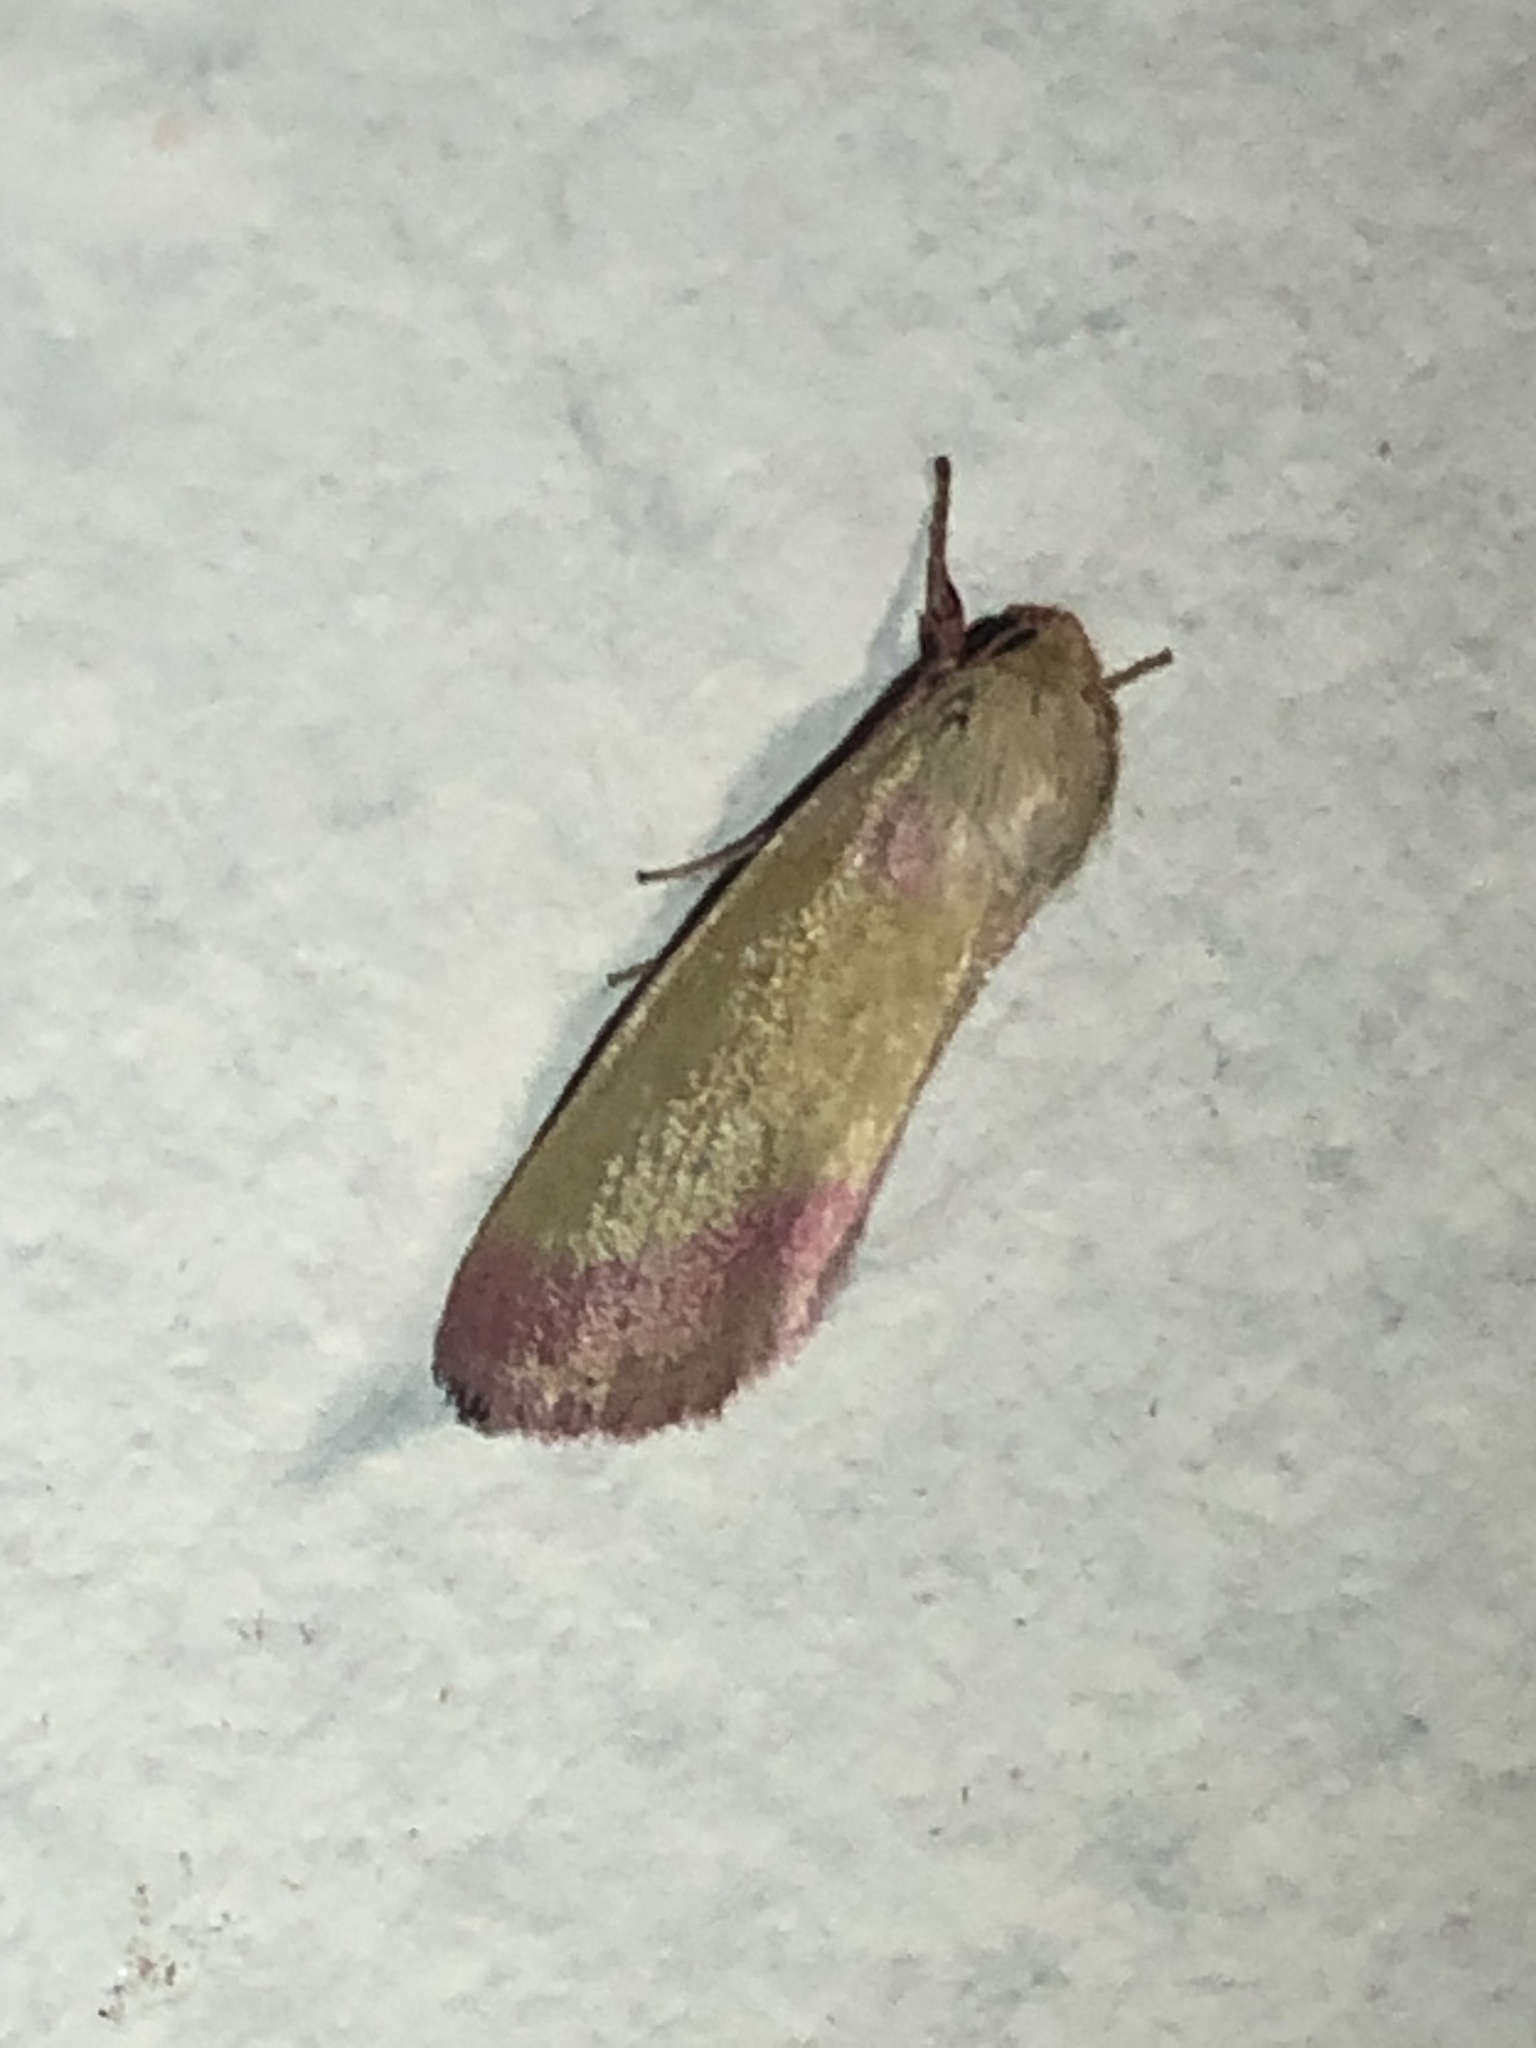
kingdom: Animalia
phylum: Arthropoda
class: Insecta
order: Lepidoptera
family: Noctuidae
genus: Heliocheilus
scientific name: Heliocheilus toralis
